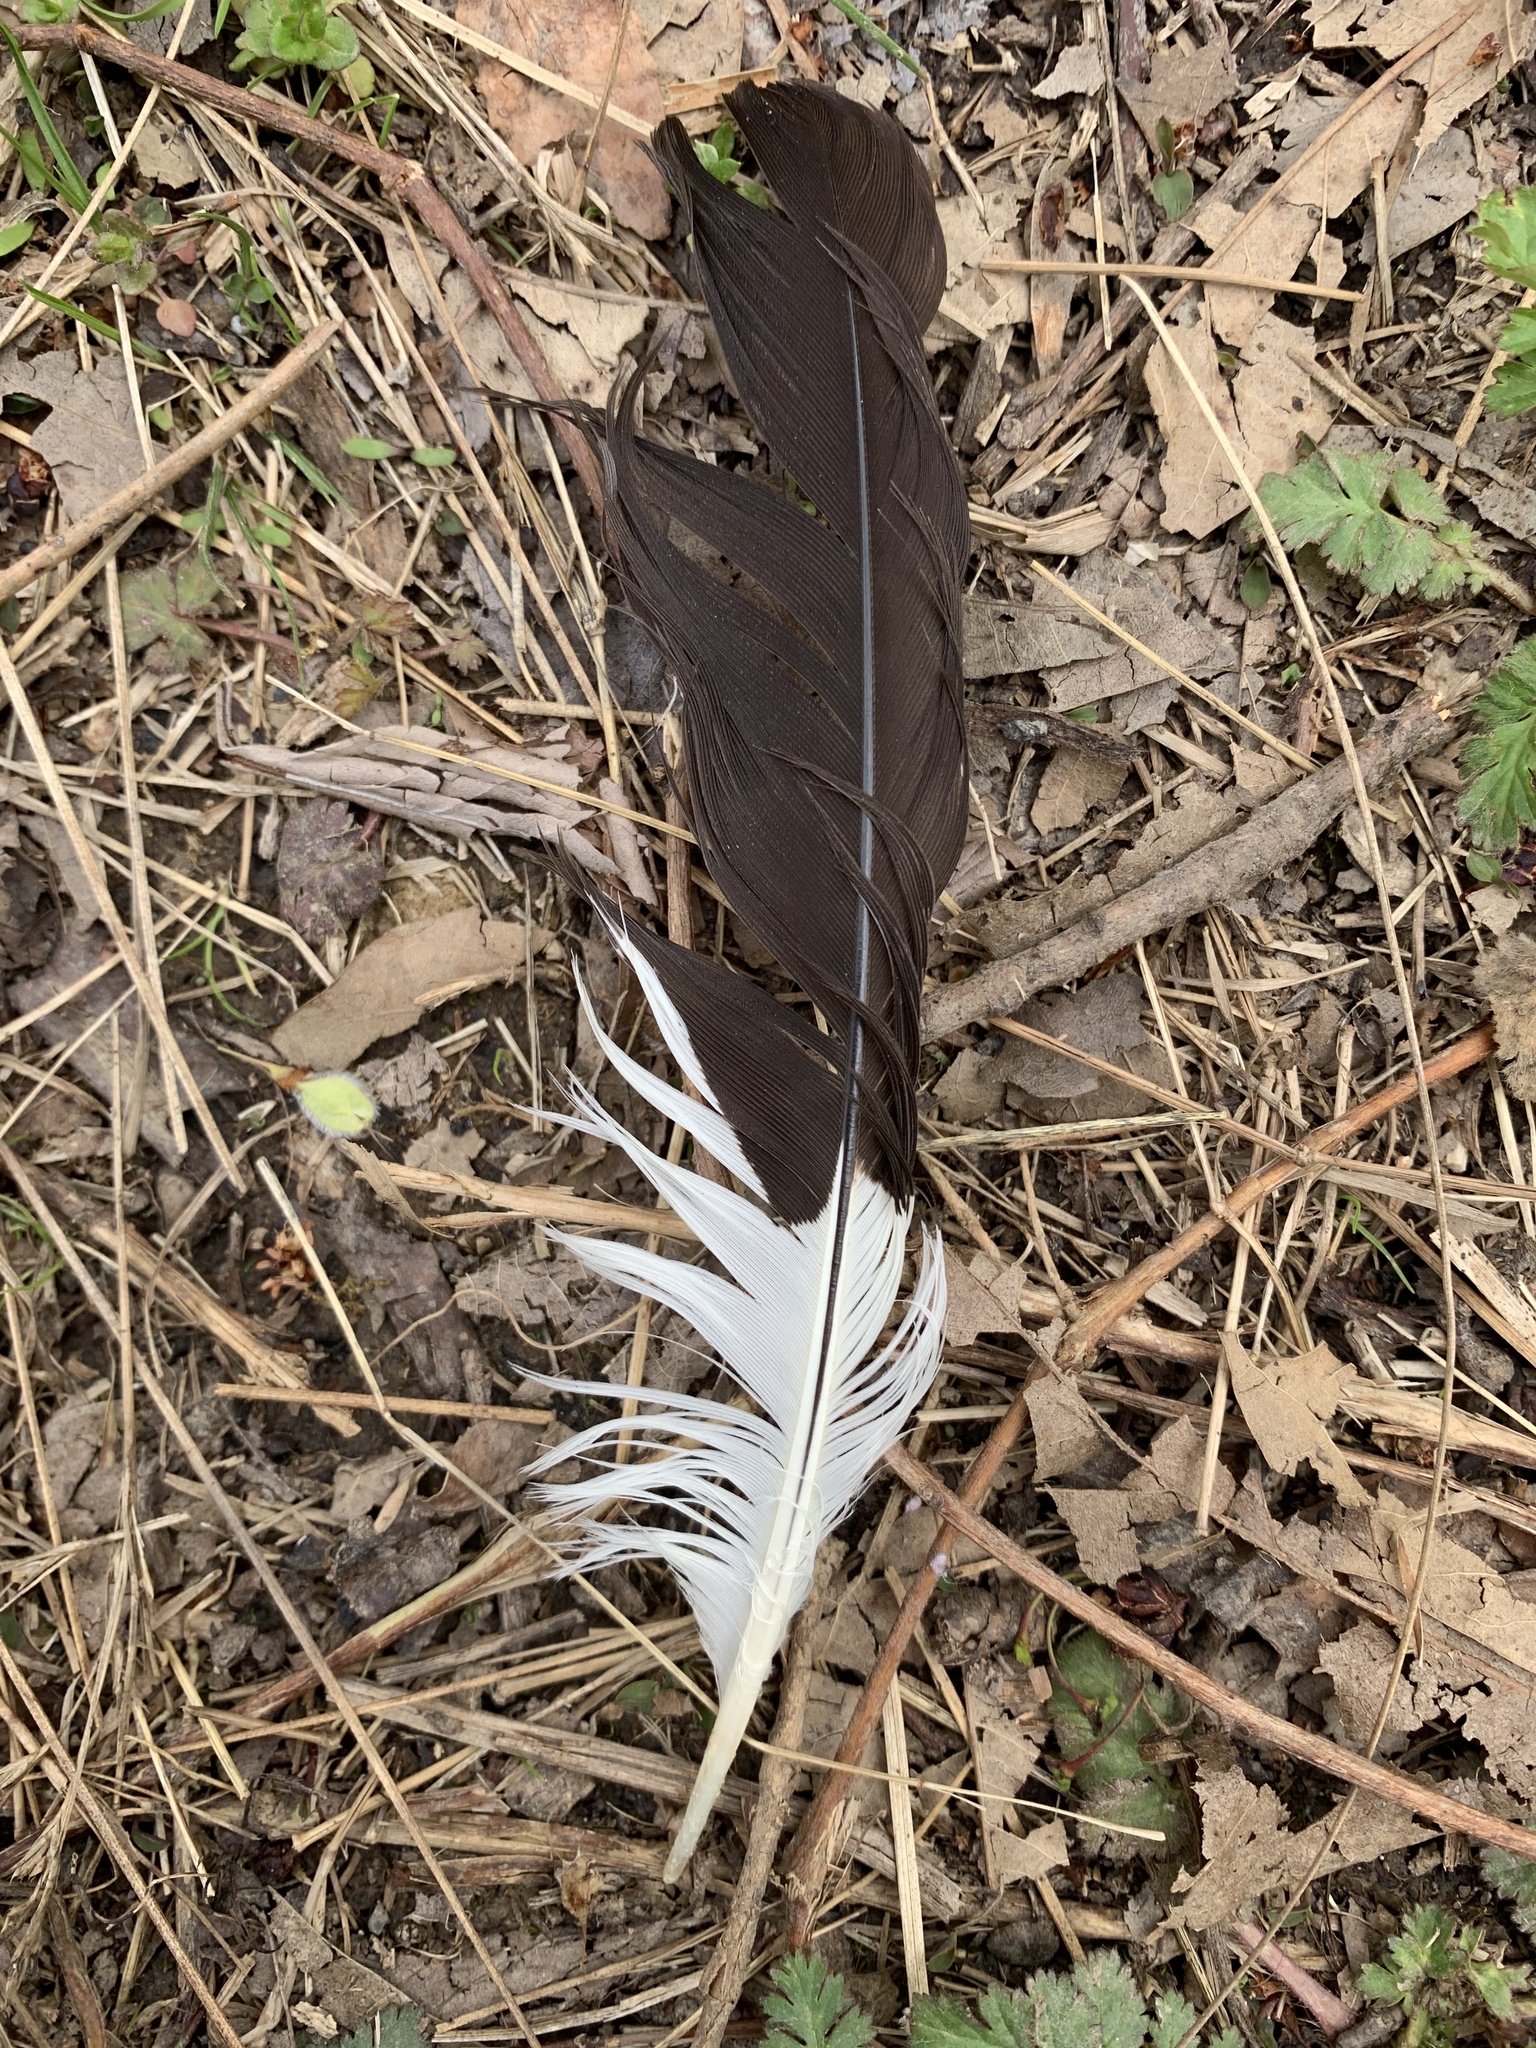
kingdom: Animalia
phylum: Chordata
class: Aves
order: Piciformes
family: Picidae
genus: Dryocopus
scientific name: Dryocopus pileatus
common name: Pileated woodpecker
